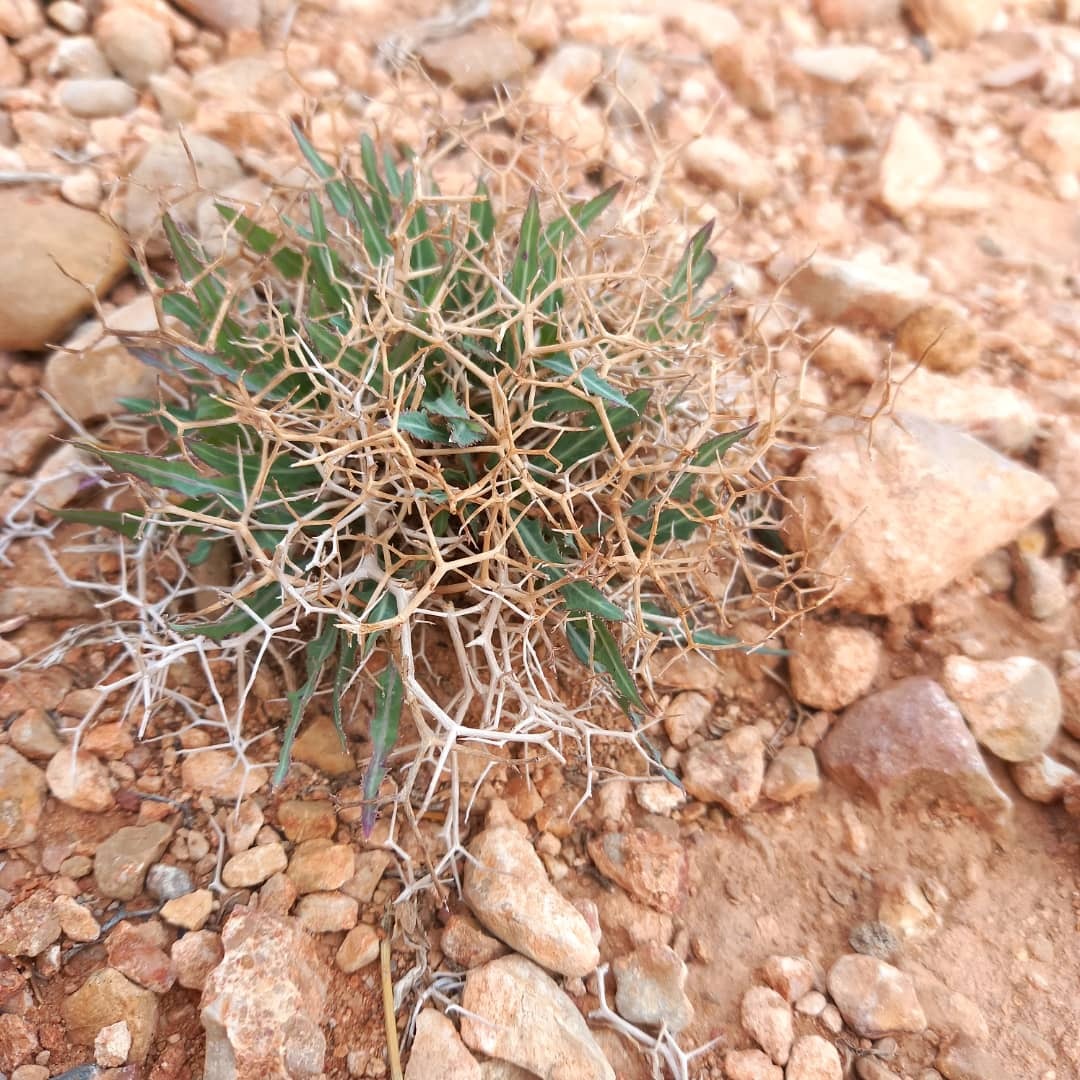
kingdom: Plantae
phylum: Tracheophyta
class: Magnoliopsida
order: Asterales
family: Asteraceae
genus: Launaea
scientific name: Launaea lanifera
